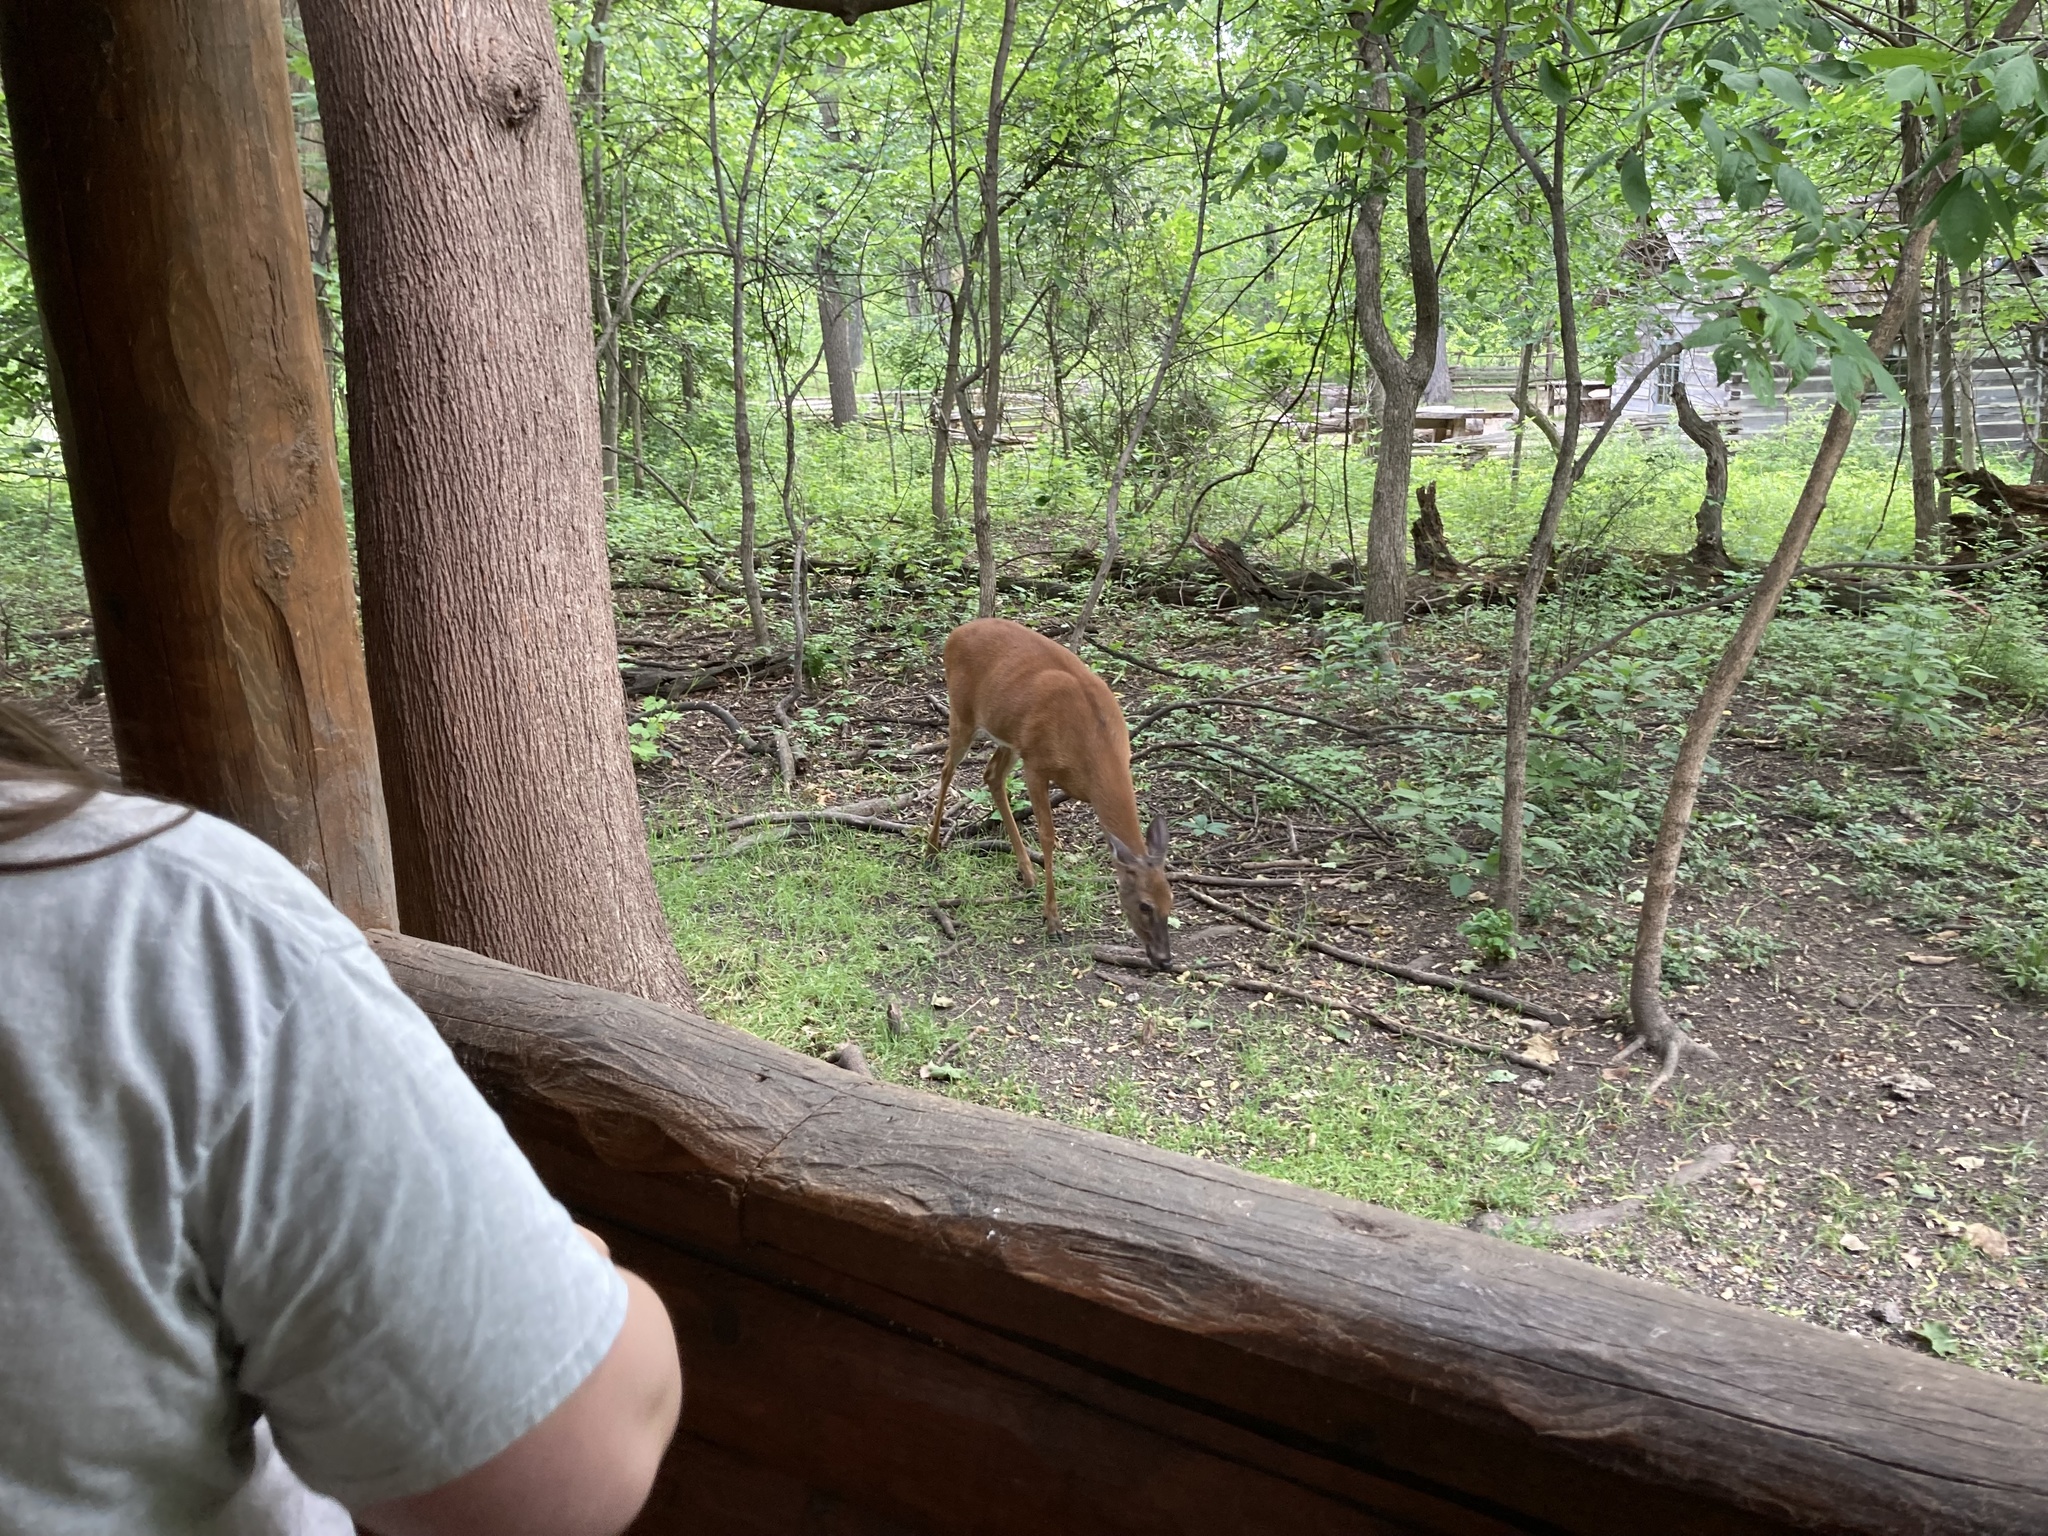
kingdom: Animalia
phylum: Chordata
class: Mammalia
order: Artiodactyla
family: Cervidae
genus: Odocoileus
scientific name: Odocoileus virginianus
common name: White-tailed deer
